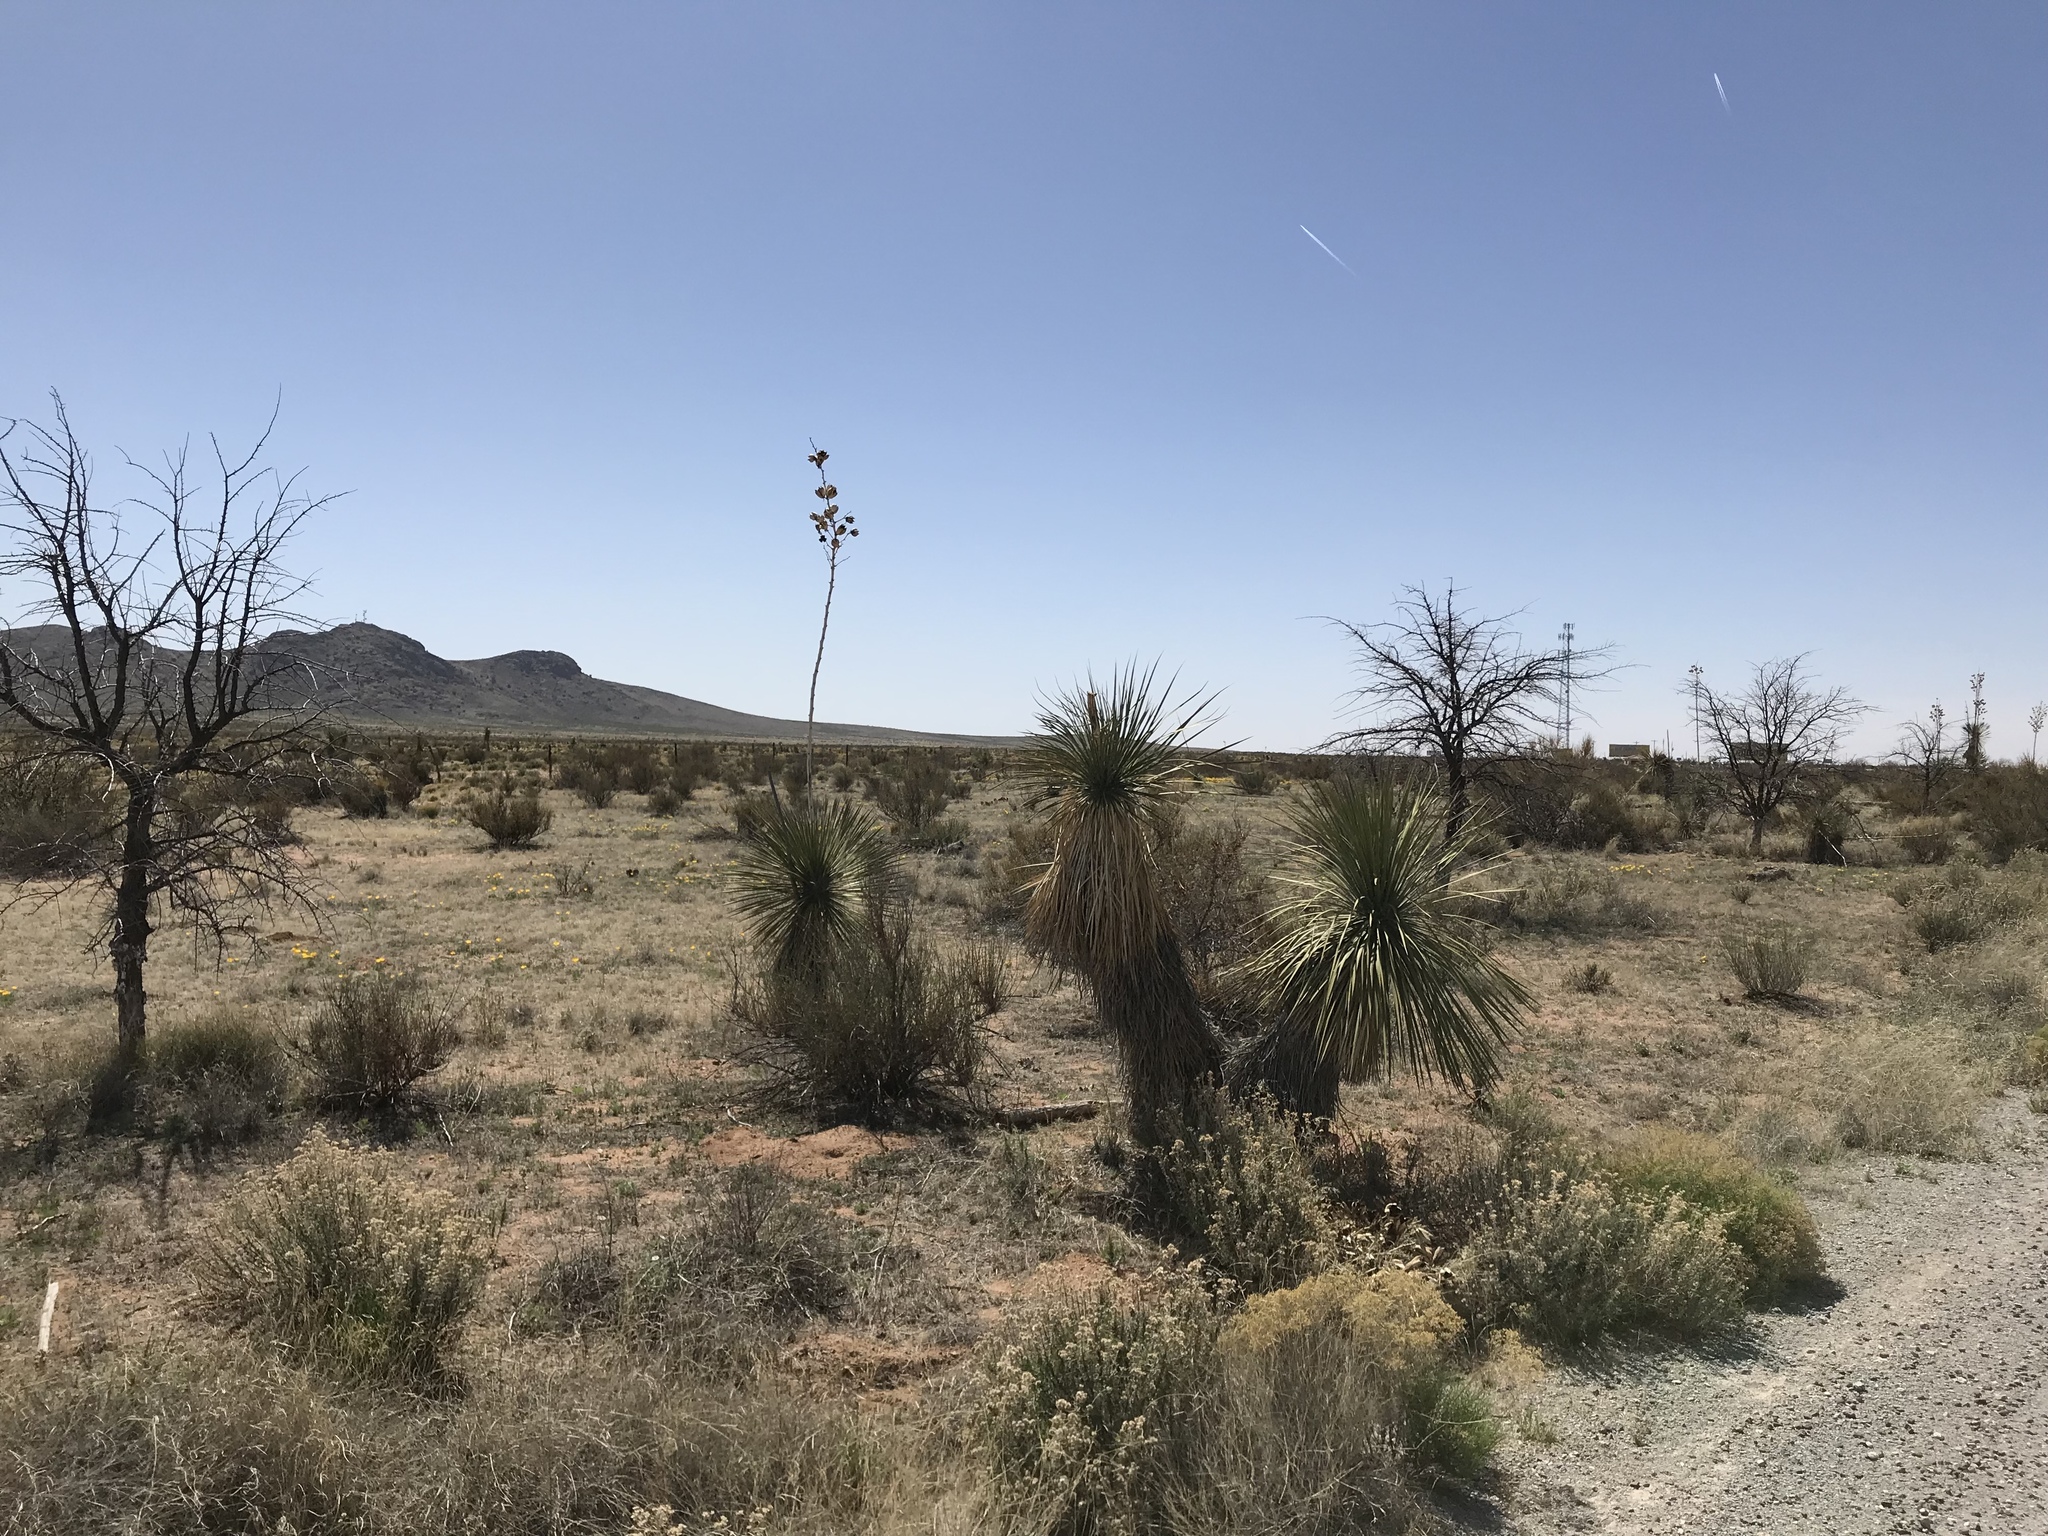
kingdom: Plantae
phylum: Tracheophyta
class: Liliopsida
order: Asparagales
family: Asparagaceae
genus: Yucca
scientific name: Yucca elata
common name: Palmella
